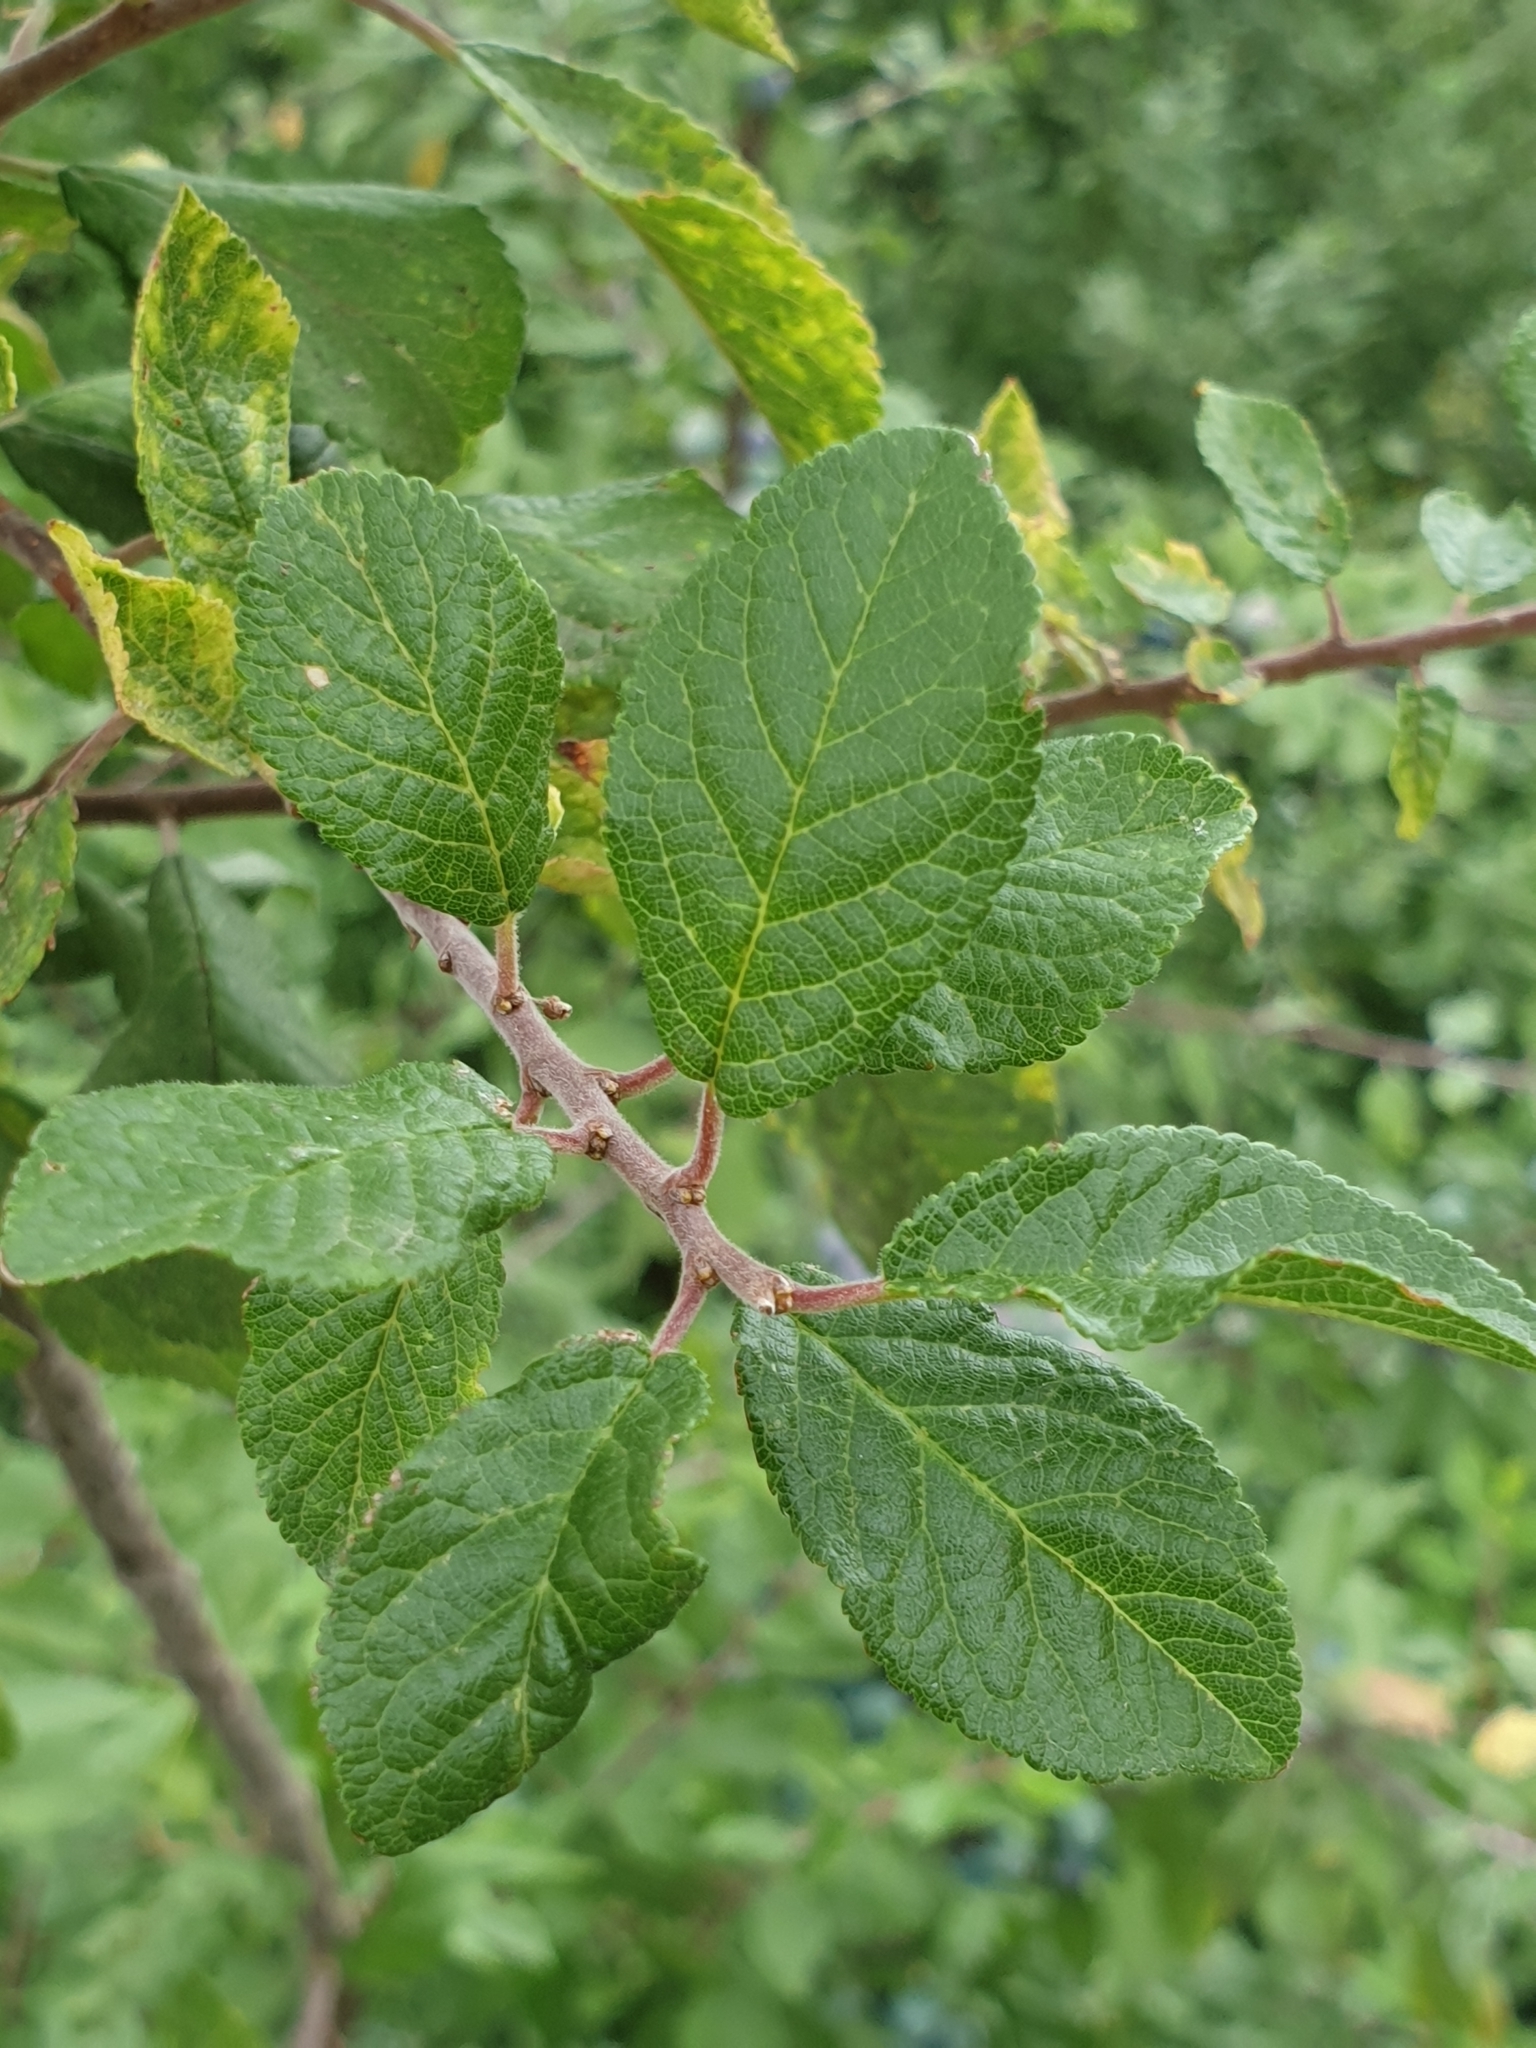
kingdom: Plantae
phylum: Tracheophyta
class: Magnoliopsida
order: Rosales
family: Rosaceae
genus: Prunus
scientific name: Prunus spinosa
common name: Blackthorn
